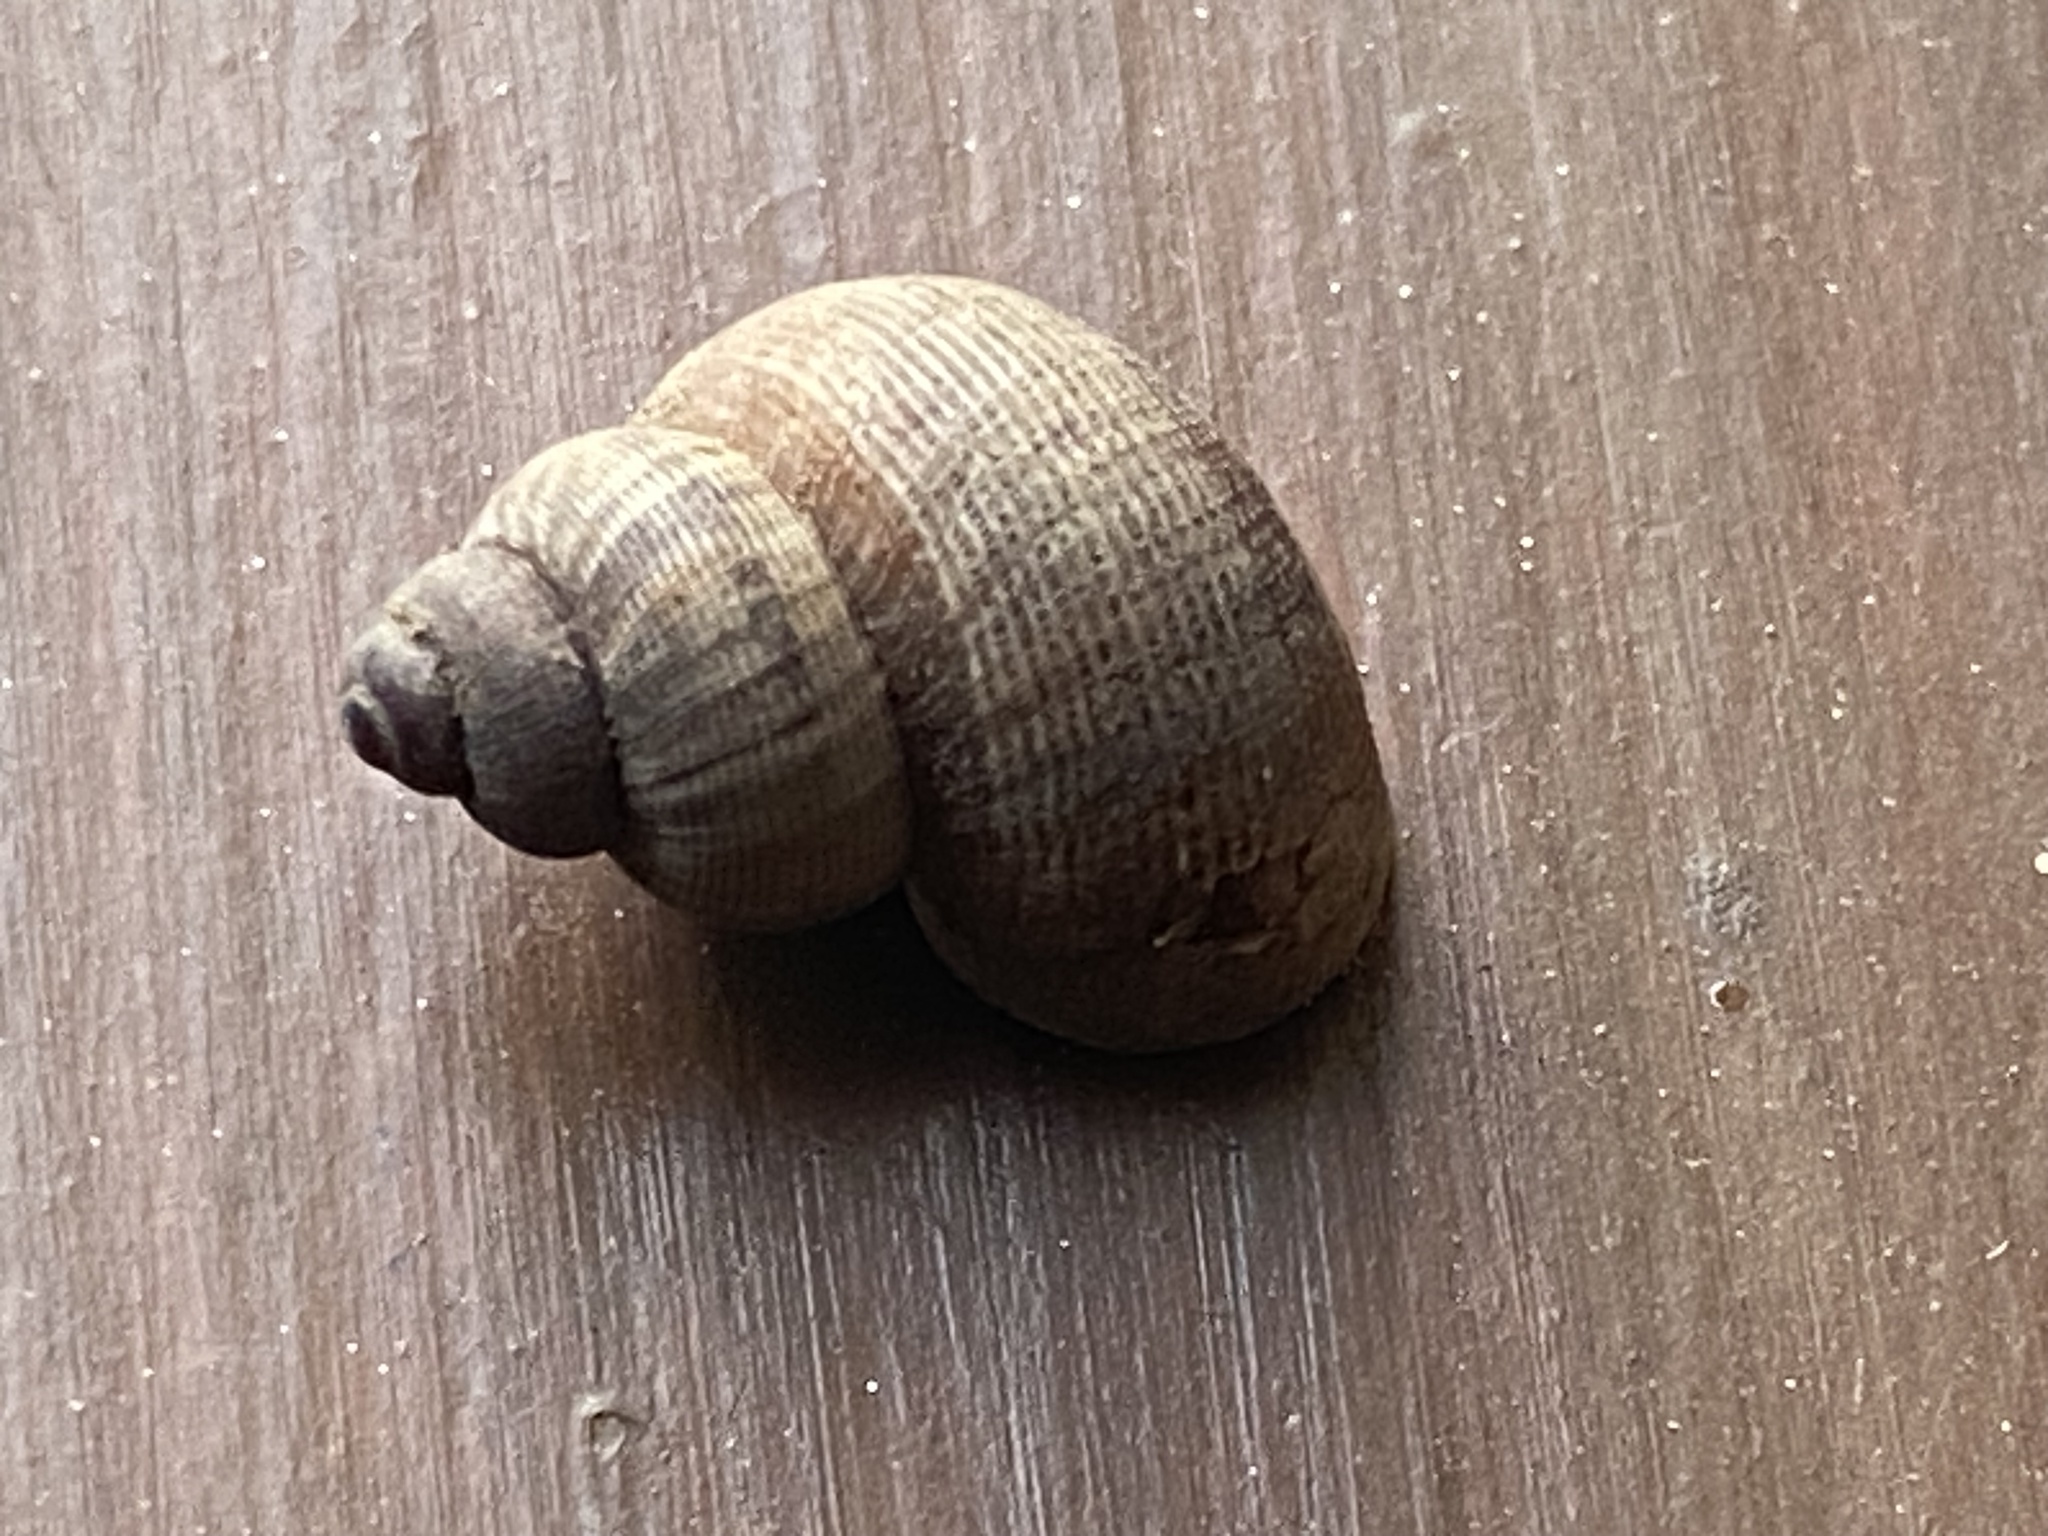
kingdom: Animalia
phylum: Mollusca
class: Gastropoda
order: Littorinimorpha
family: Pomatiidae
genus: Pomatias
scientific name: Pomatias elegans
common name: Red-mouthed snail
